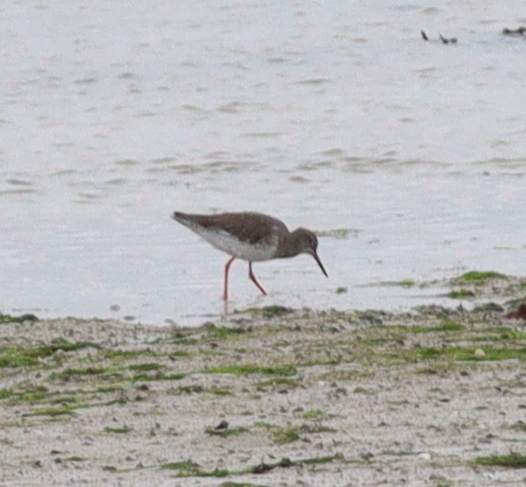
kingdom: Animalia
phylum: Chordata
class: Aves
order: Charadriiformes
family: Scolopacidae
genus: Tringa
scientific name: Tringa totanus
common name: Common redshank
